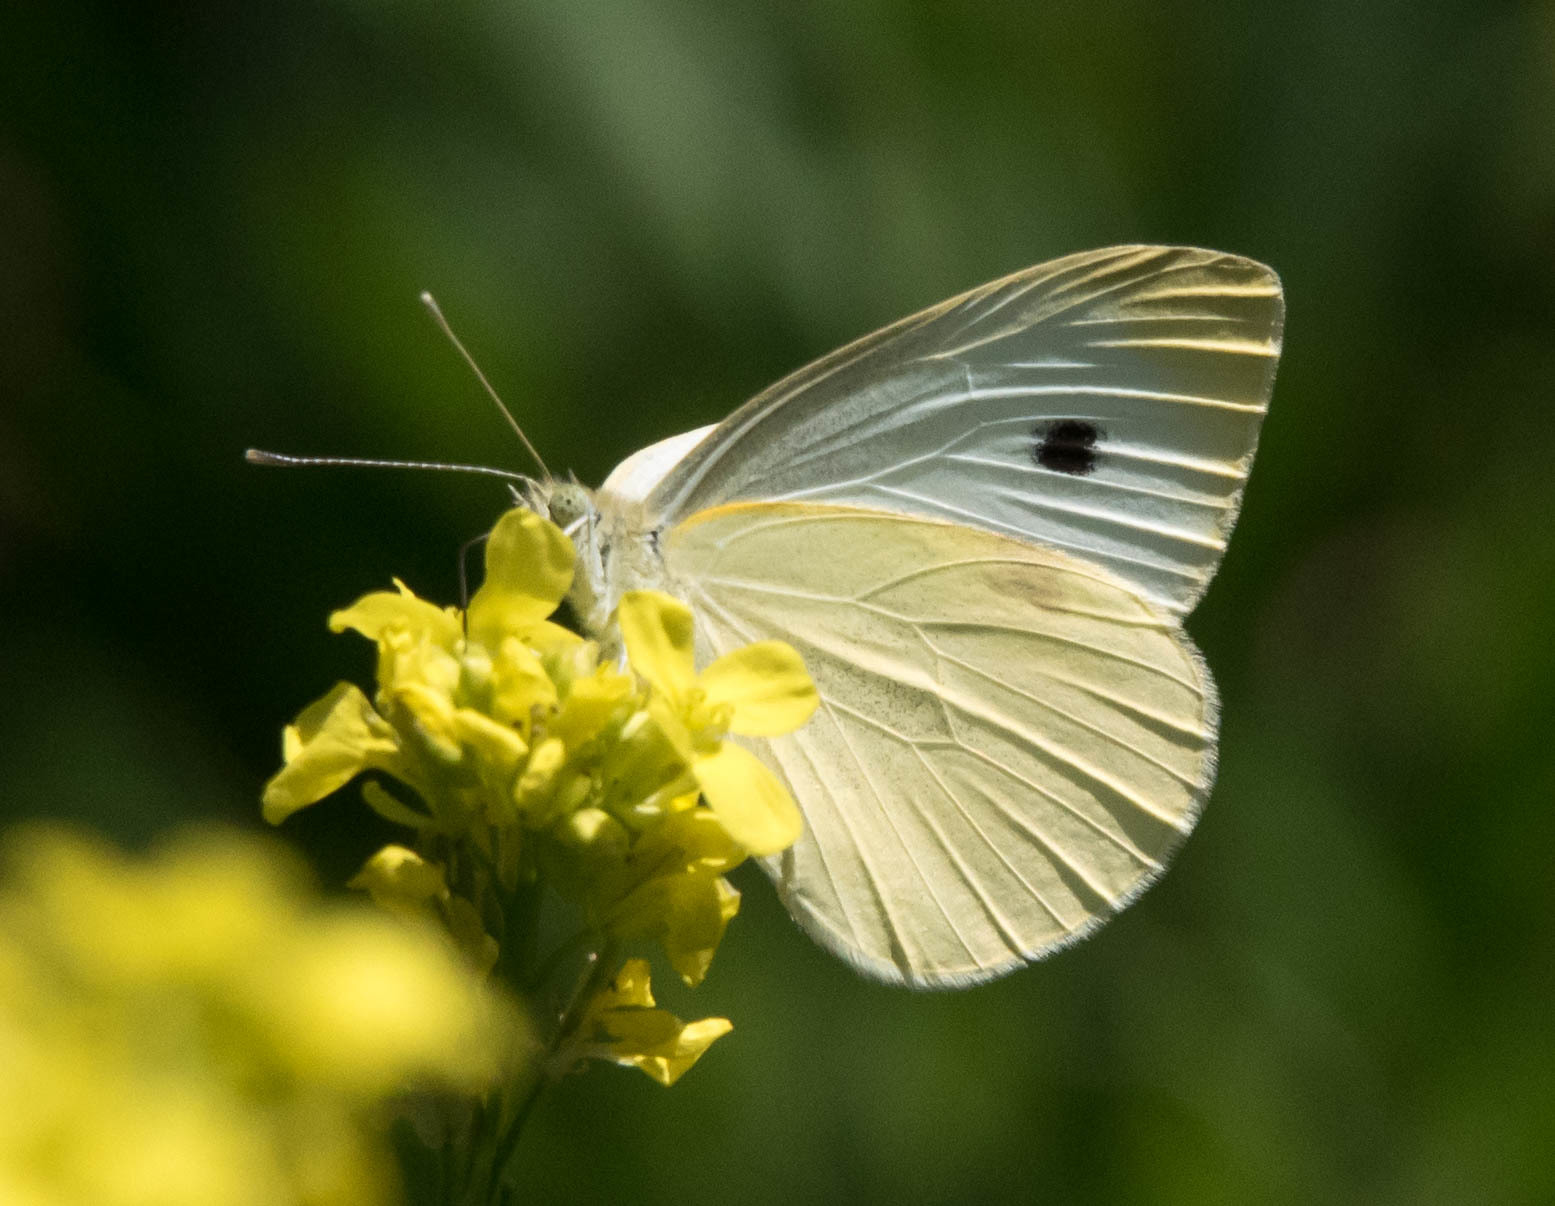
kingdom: Animalia
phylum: Arthropoda
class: Insecta
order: Lepidoptera
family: Pieridae
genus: Pieris
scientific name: Pieris rapae
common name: Small white
